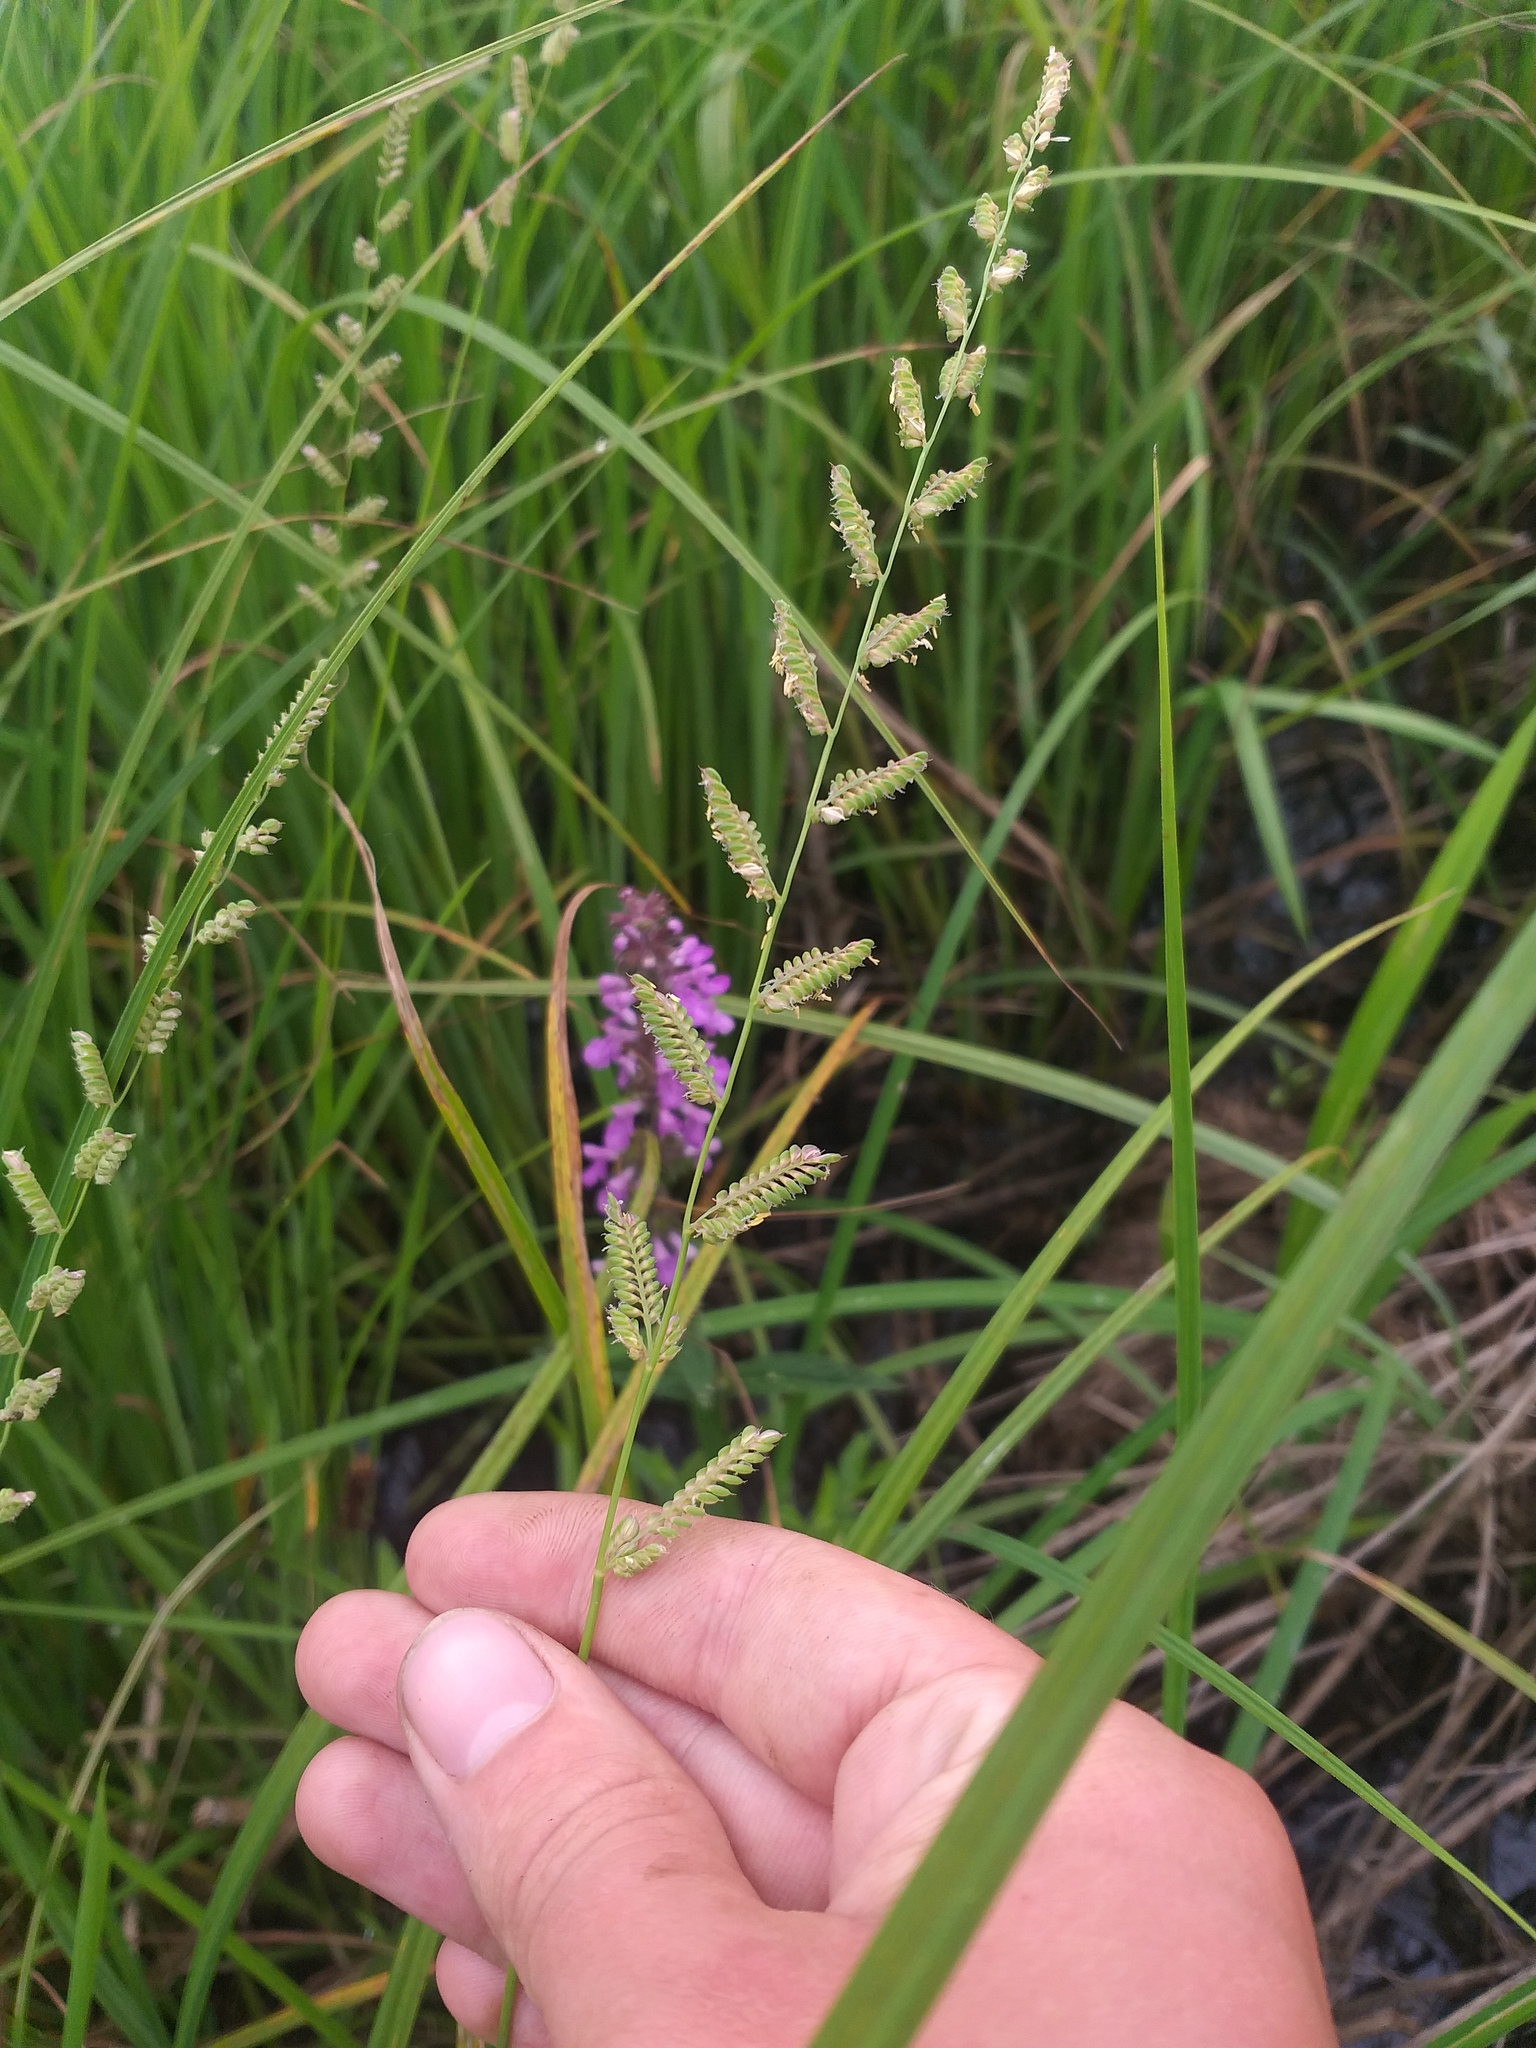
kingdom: Plantae
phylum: Tracheophyta
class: Liliopsida
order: Poales
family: Poaceae
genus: Beckmannia
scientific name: Beckmannia eruciformis
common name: European slough-grass
